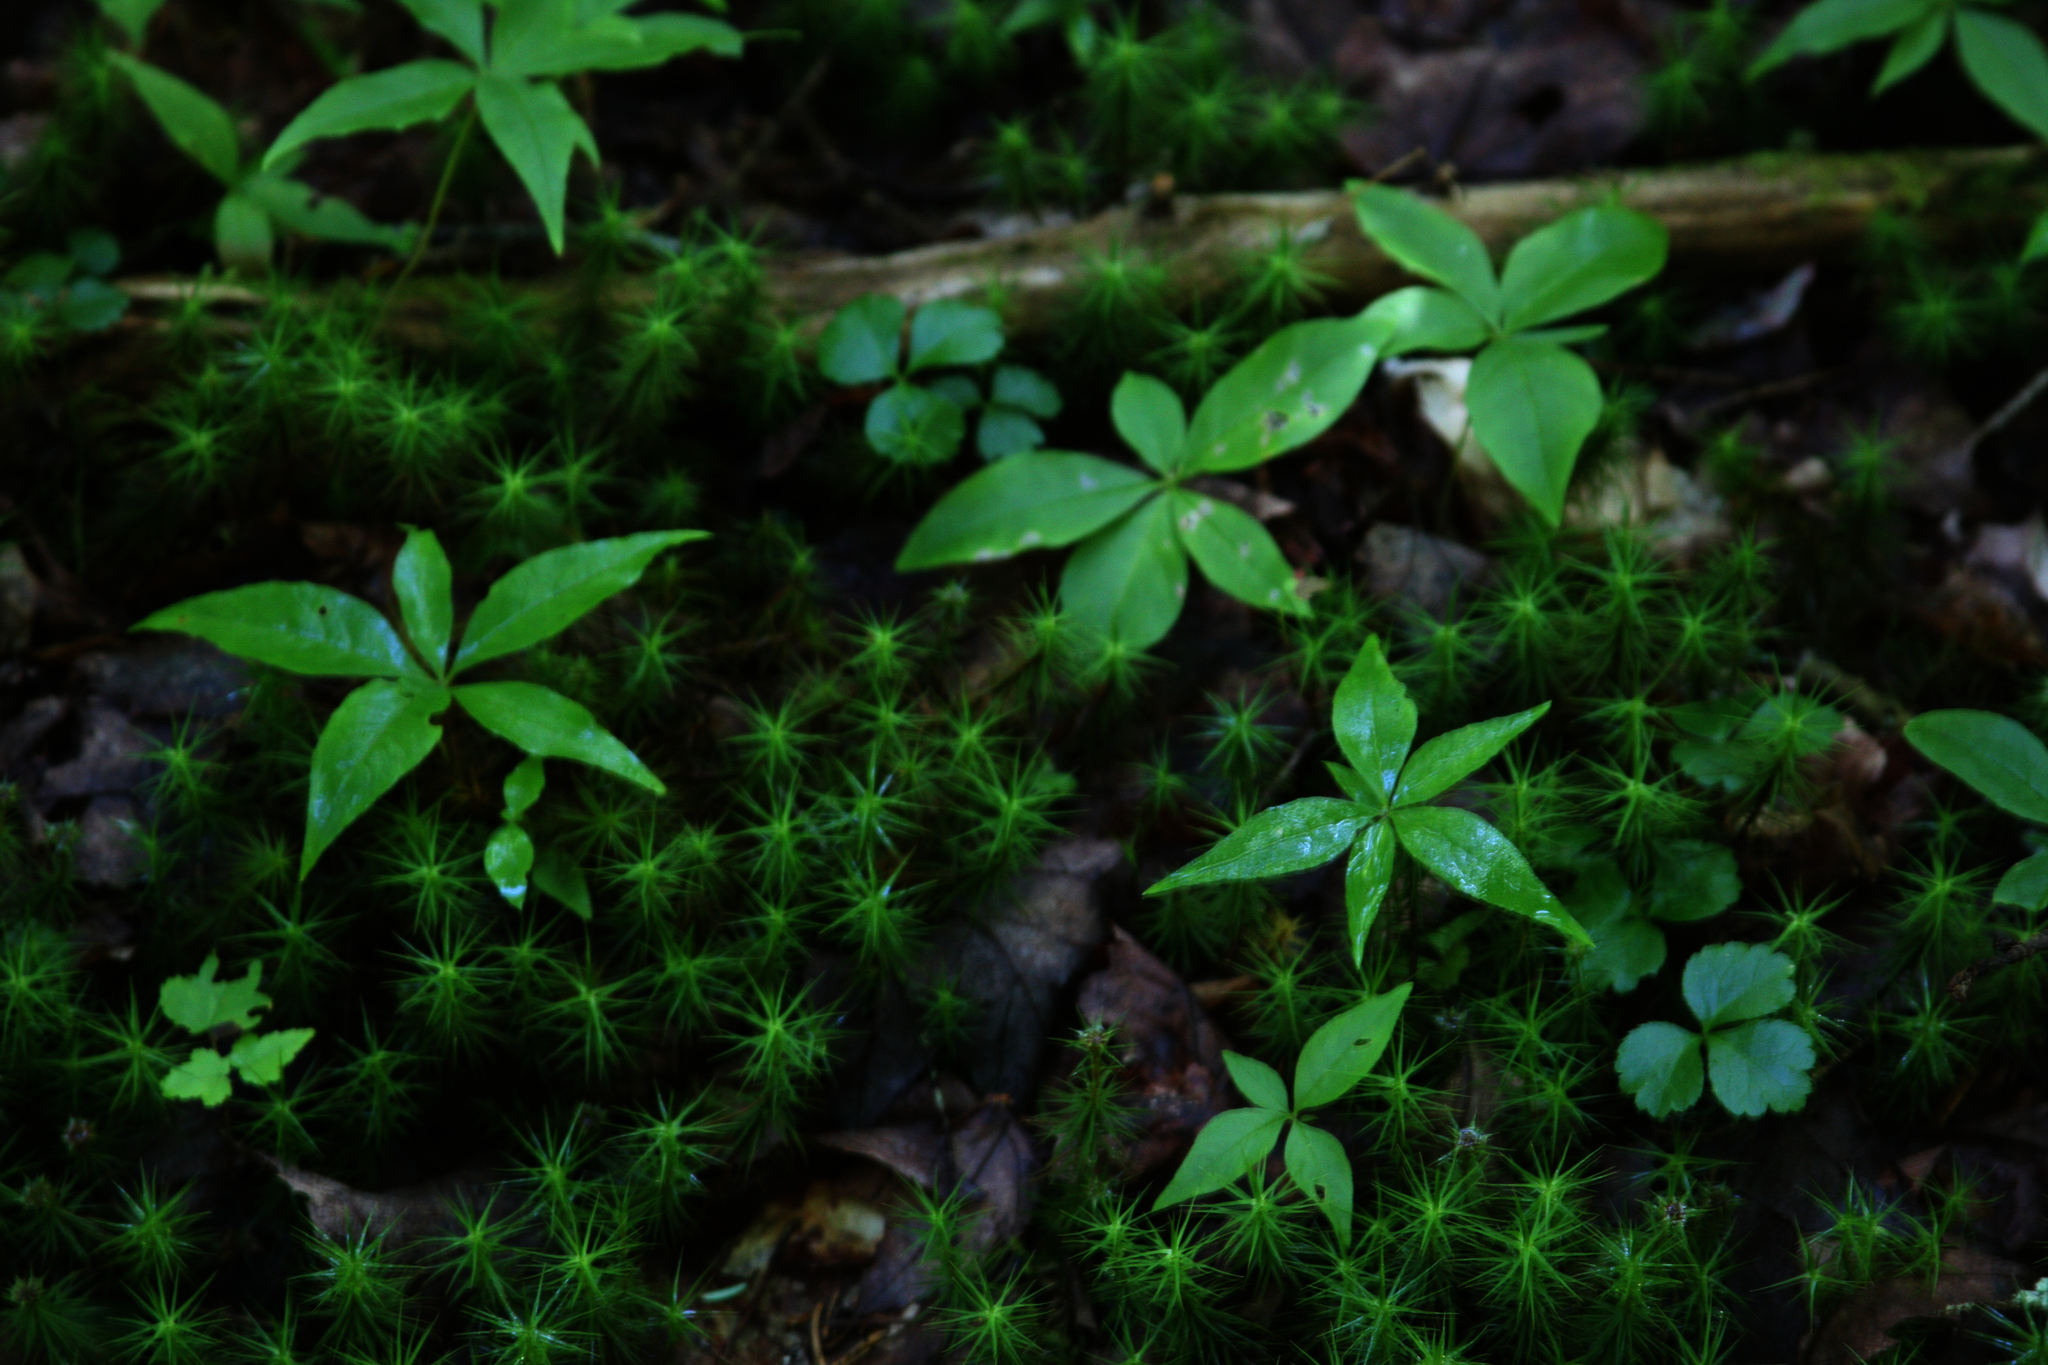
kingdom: Plantae
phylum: Tracheophyta
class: Magnoliopsida
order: Ranunculales
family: Ranunculaceae
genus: Coptis
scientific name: Coptis trifolia
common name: Canker-root
